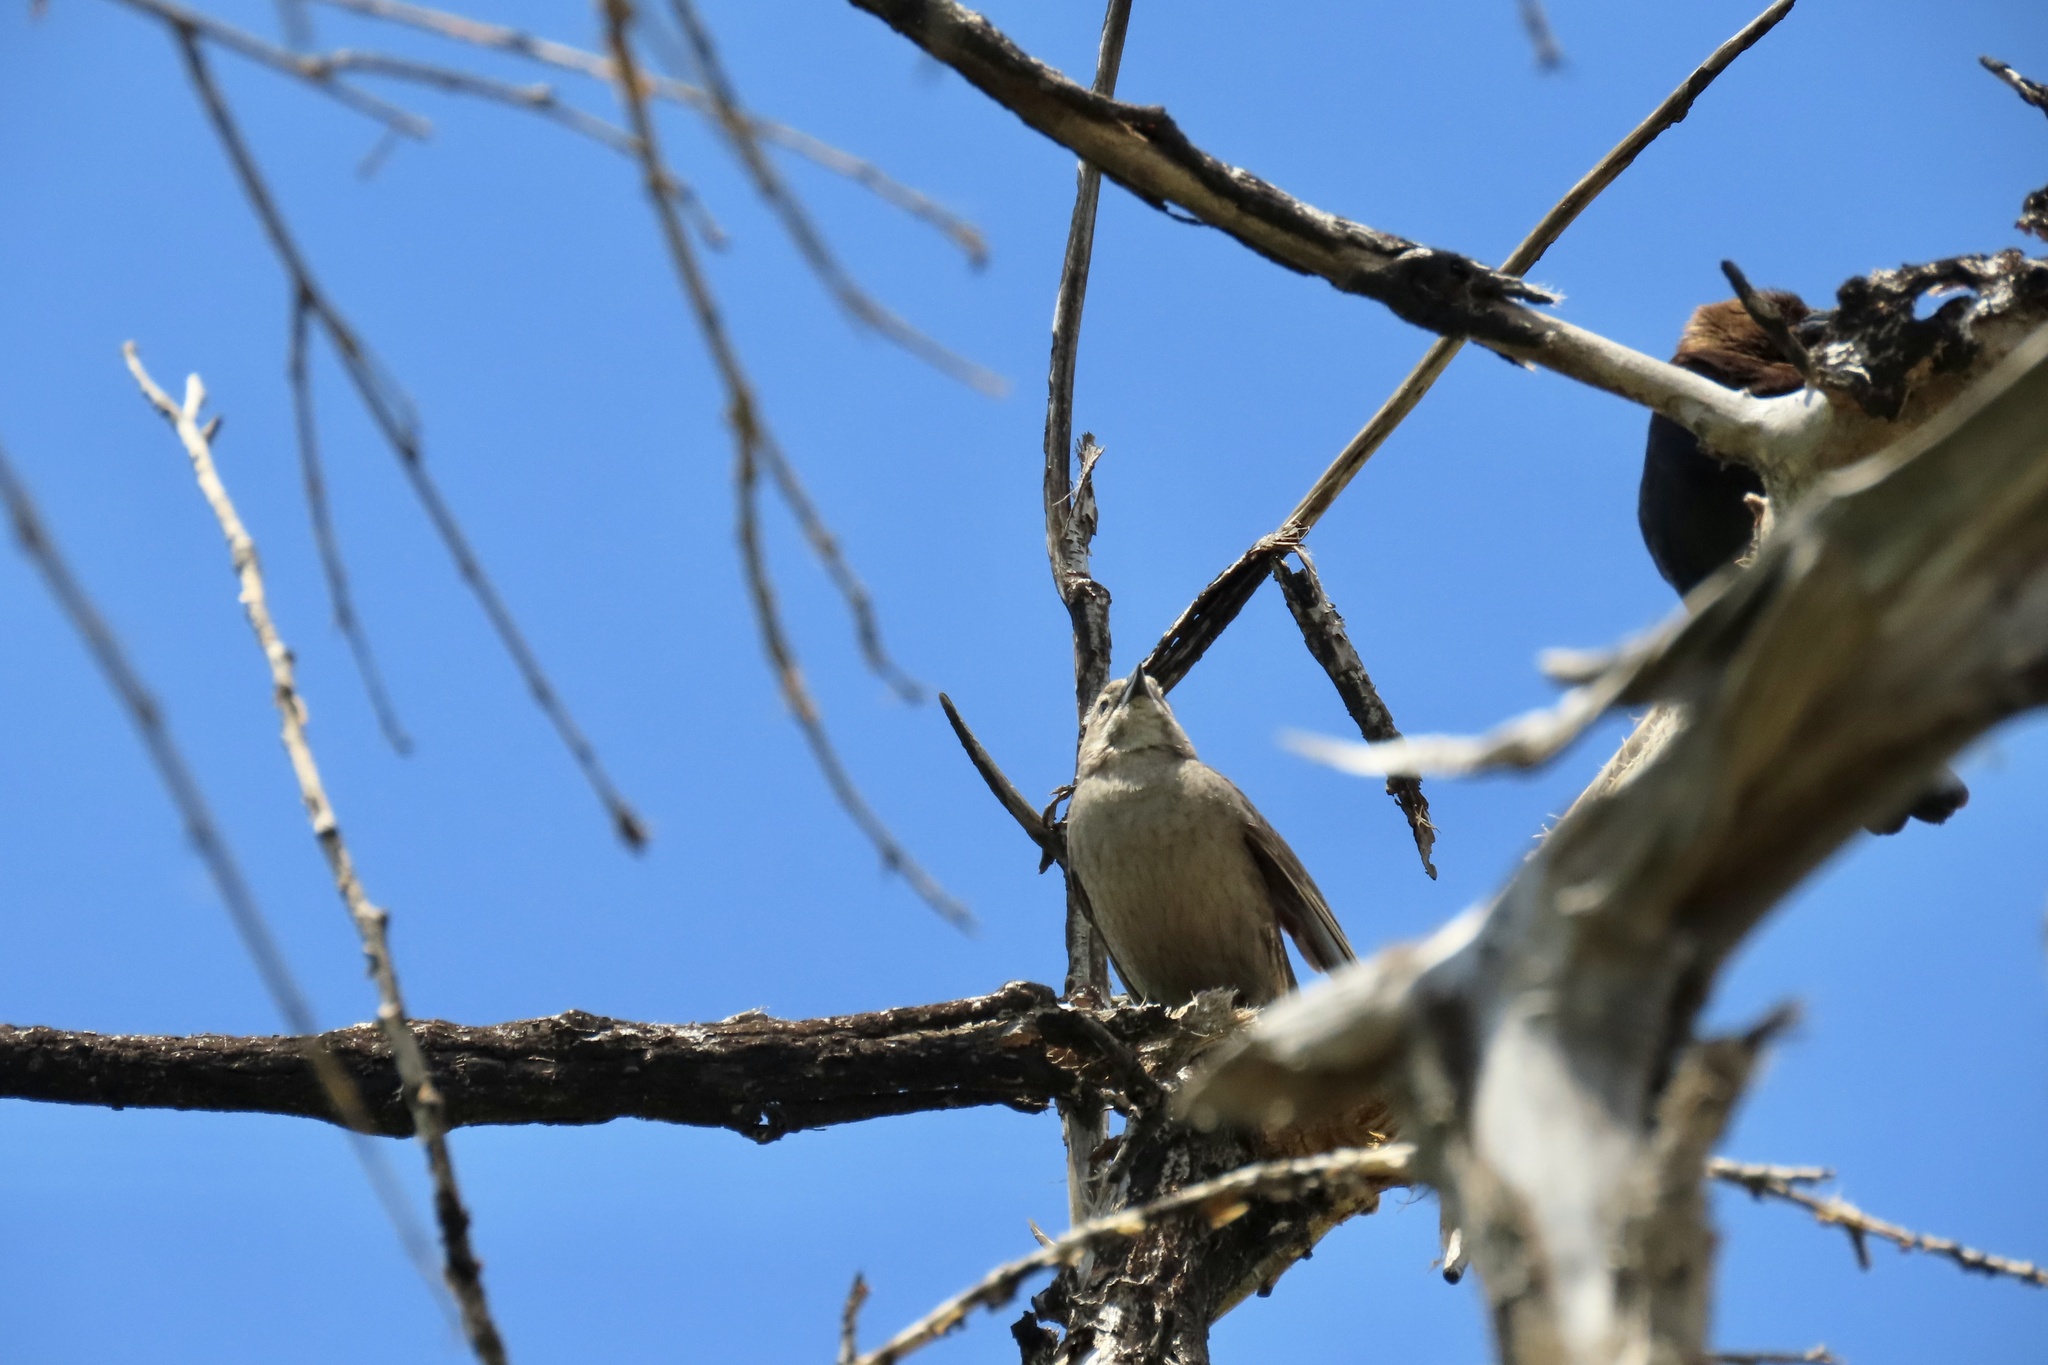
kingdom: Animalia
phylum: Chordata
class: Aves
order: Passeriformes
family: Icteridae
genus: Molothrus
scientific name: Molothrus ater
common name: Brown-headed cowbird
